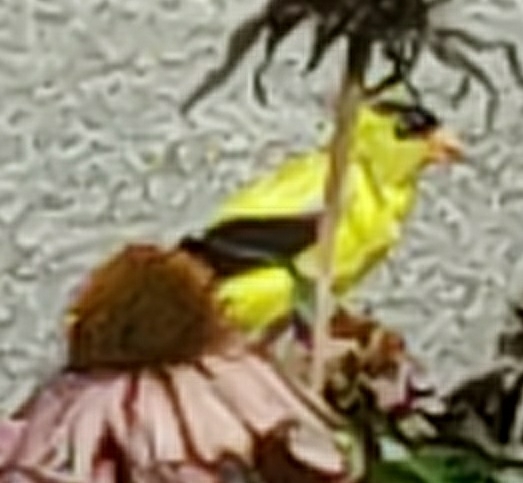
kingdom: Animalia
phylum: Chordata
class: Aves
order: Passeriformes
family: Fringillidae
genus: Spinus
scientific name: Spinus tristis
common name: American goldfinch
